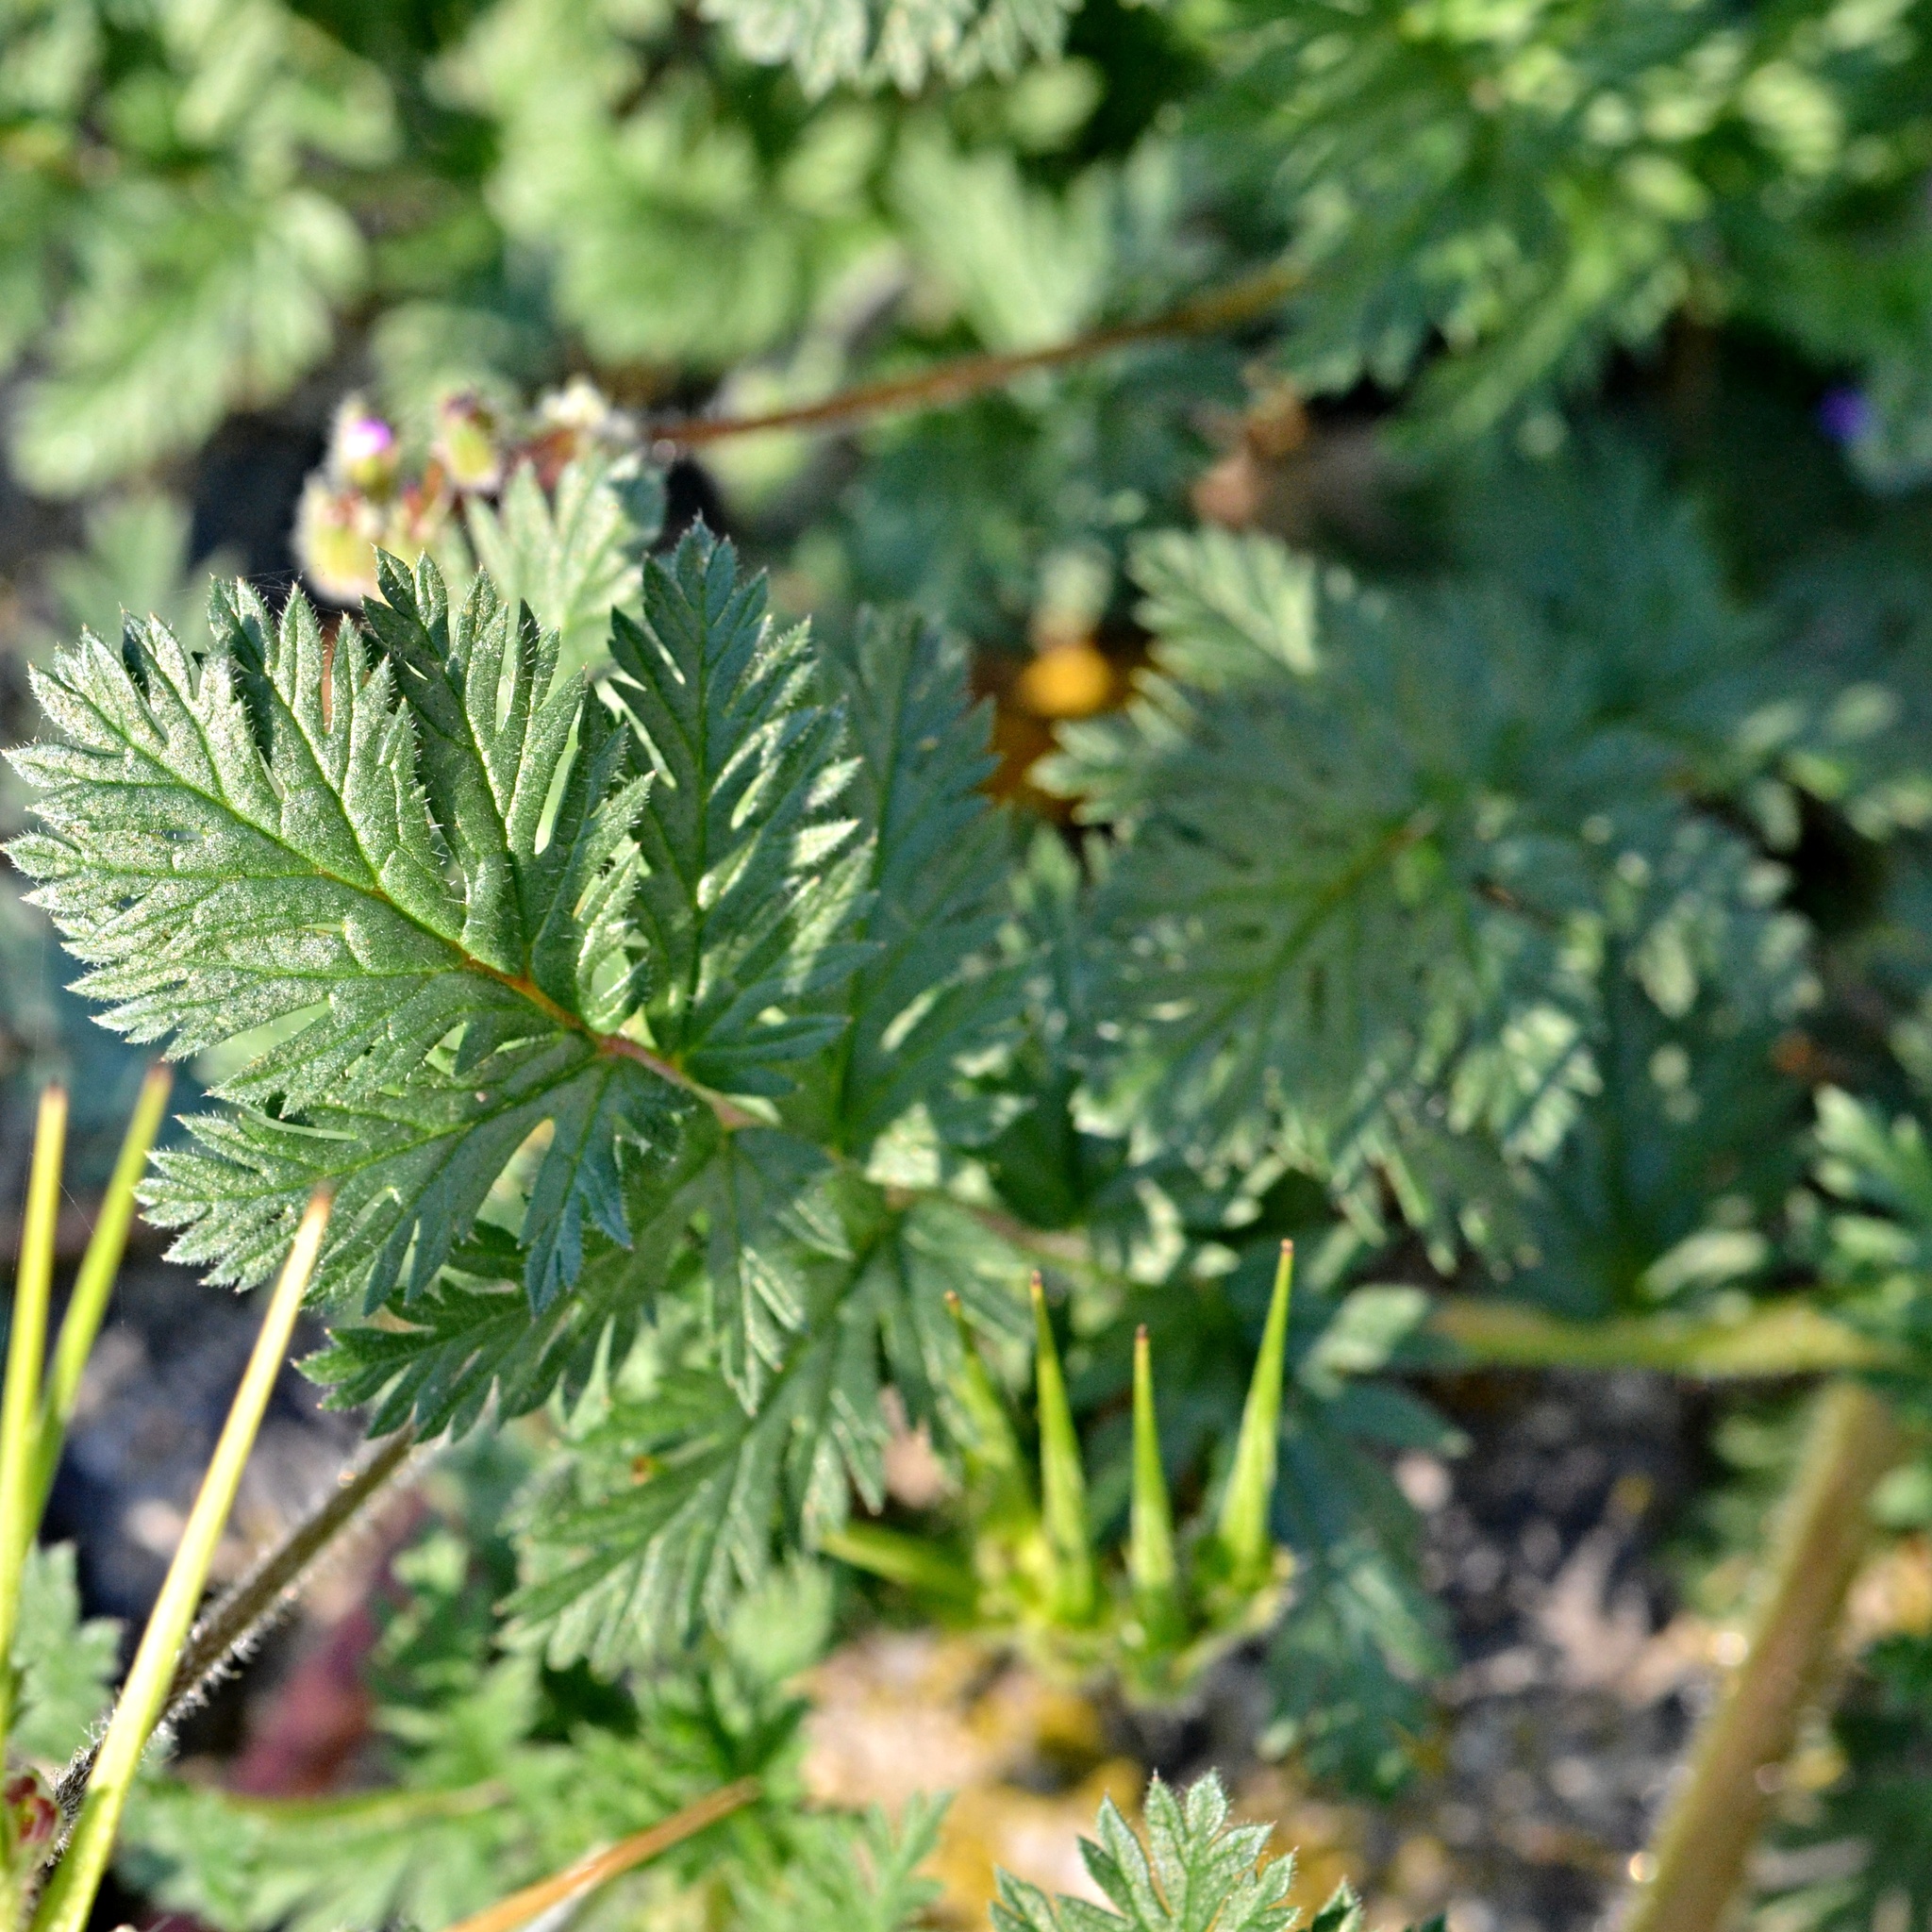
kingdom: Plantae
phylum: Tracheophyta
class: Magnoliopsida
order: Geraniales
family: Geraniaceae
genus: Erodium
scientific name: Erodium cicutarium
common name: Common stork's-bill
